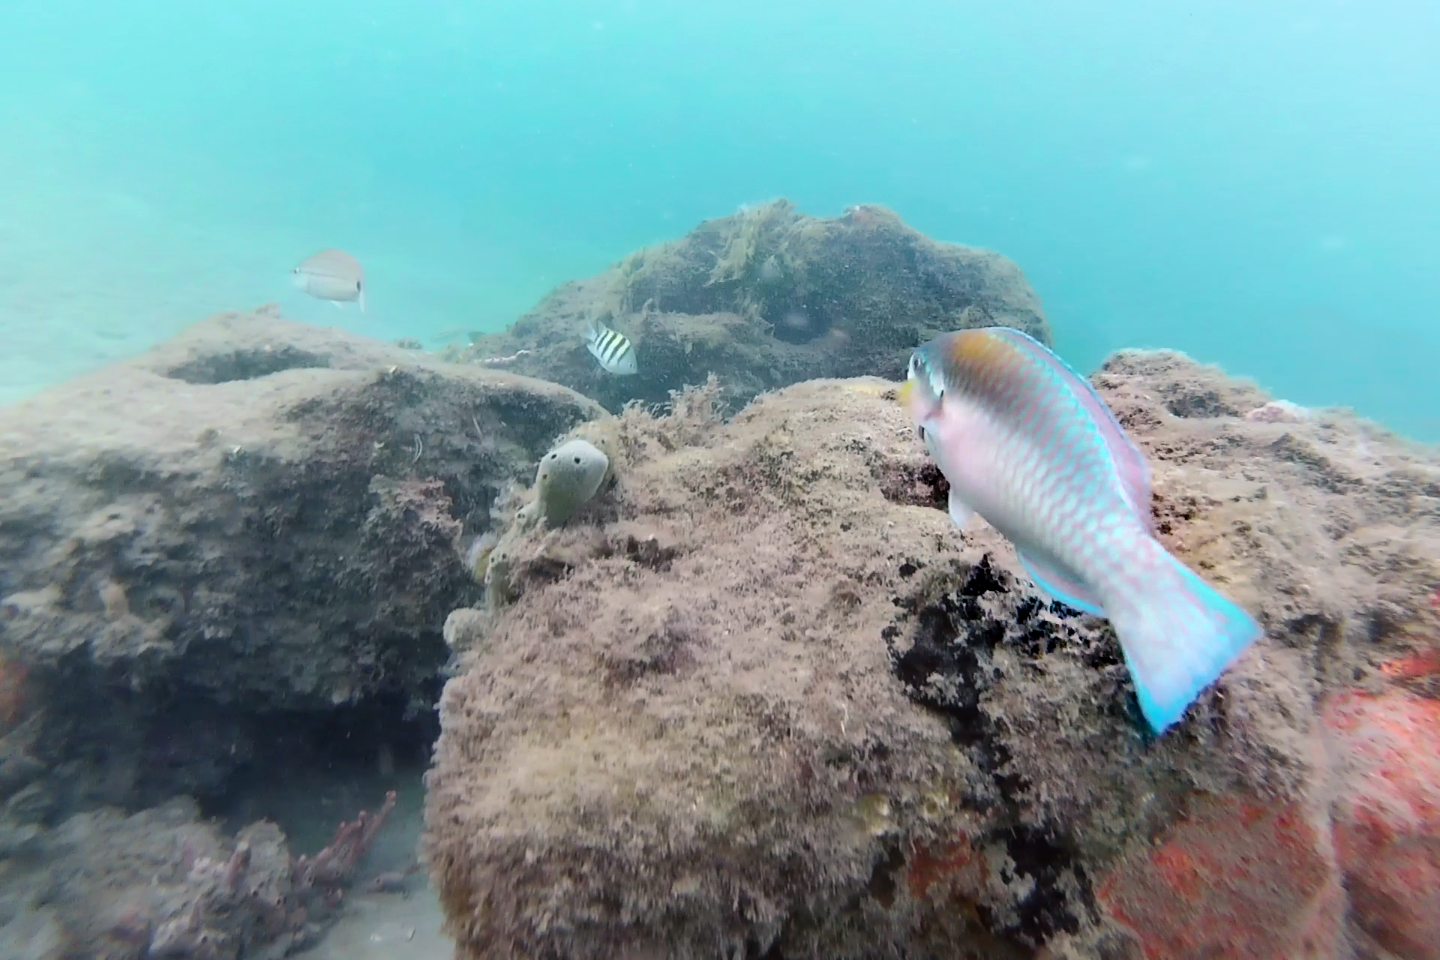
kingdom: Animalia
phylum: Chordata
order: Perciformes
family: Scaridae
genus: Scarus
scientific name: Scarus iseri
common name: Striped parrotfish
